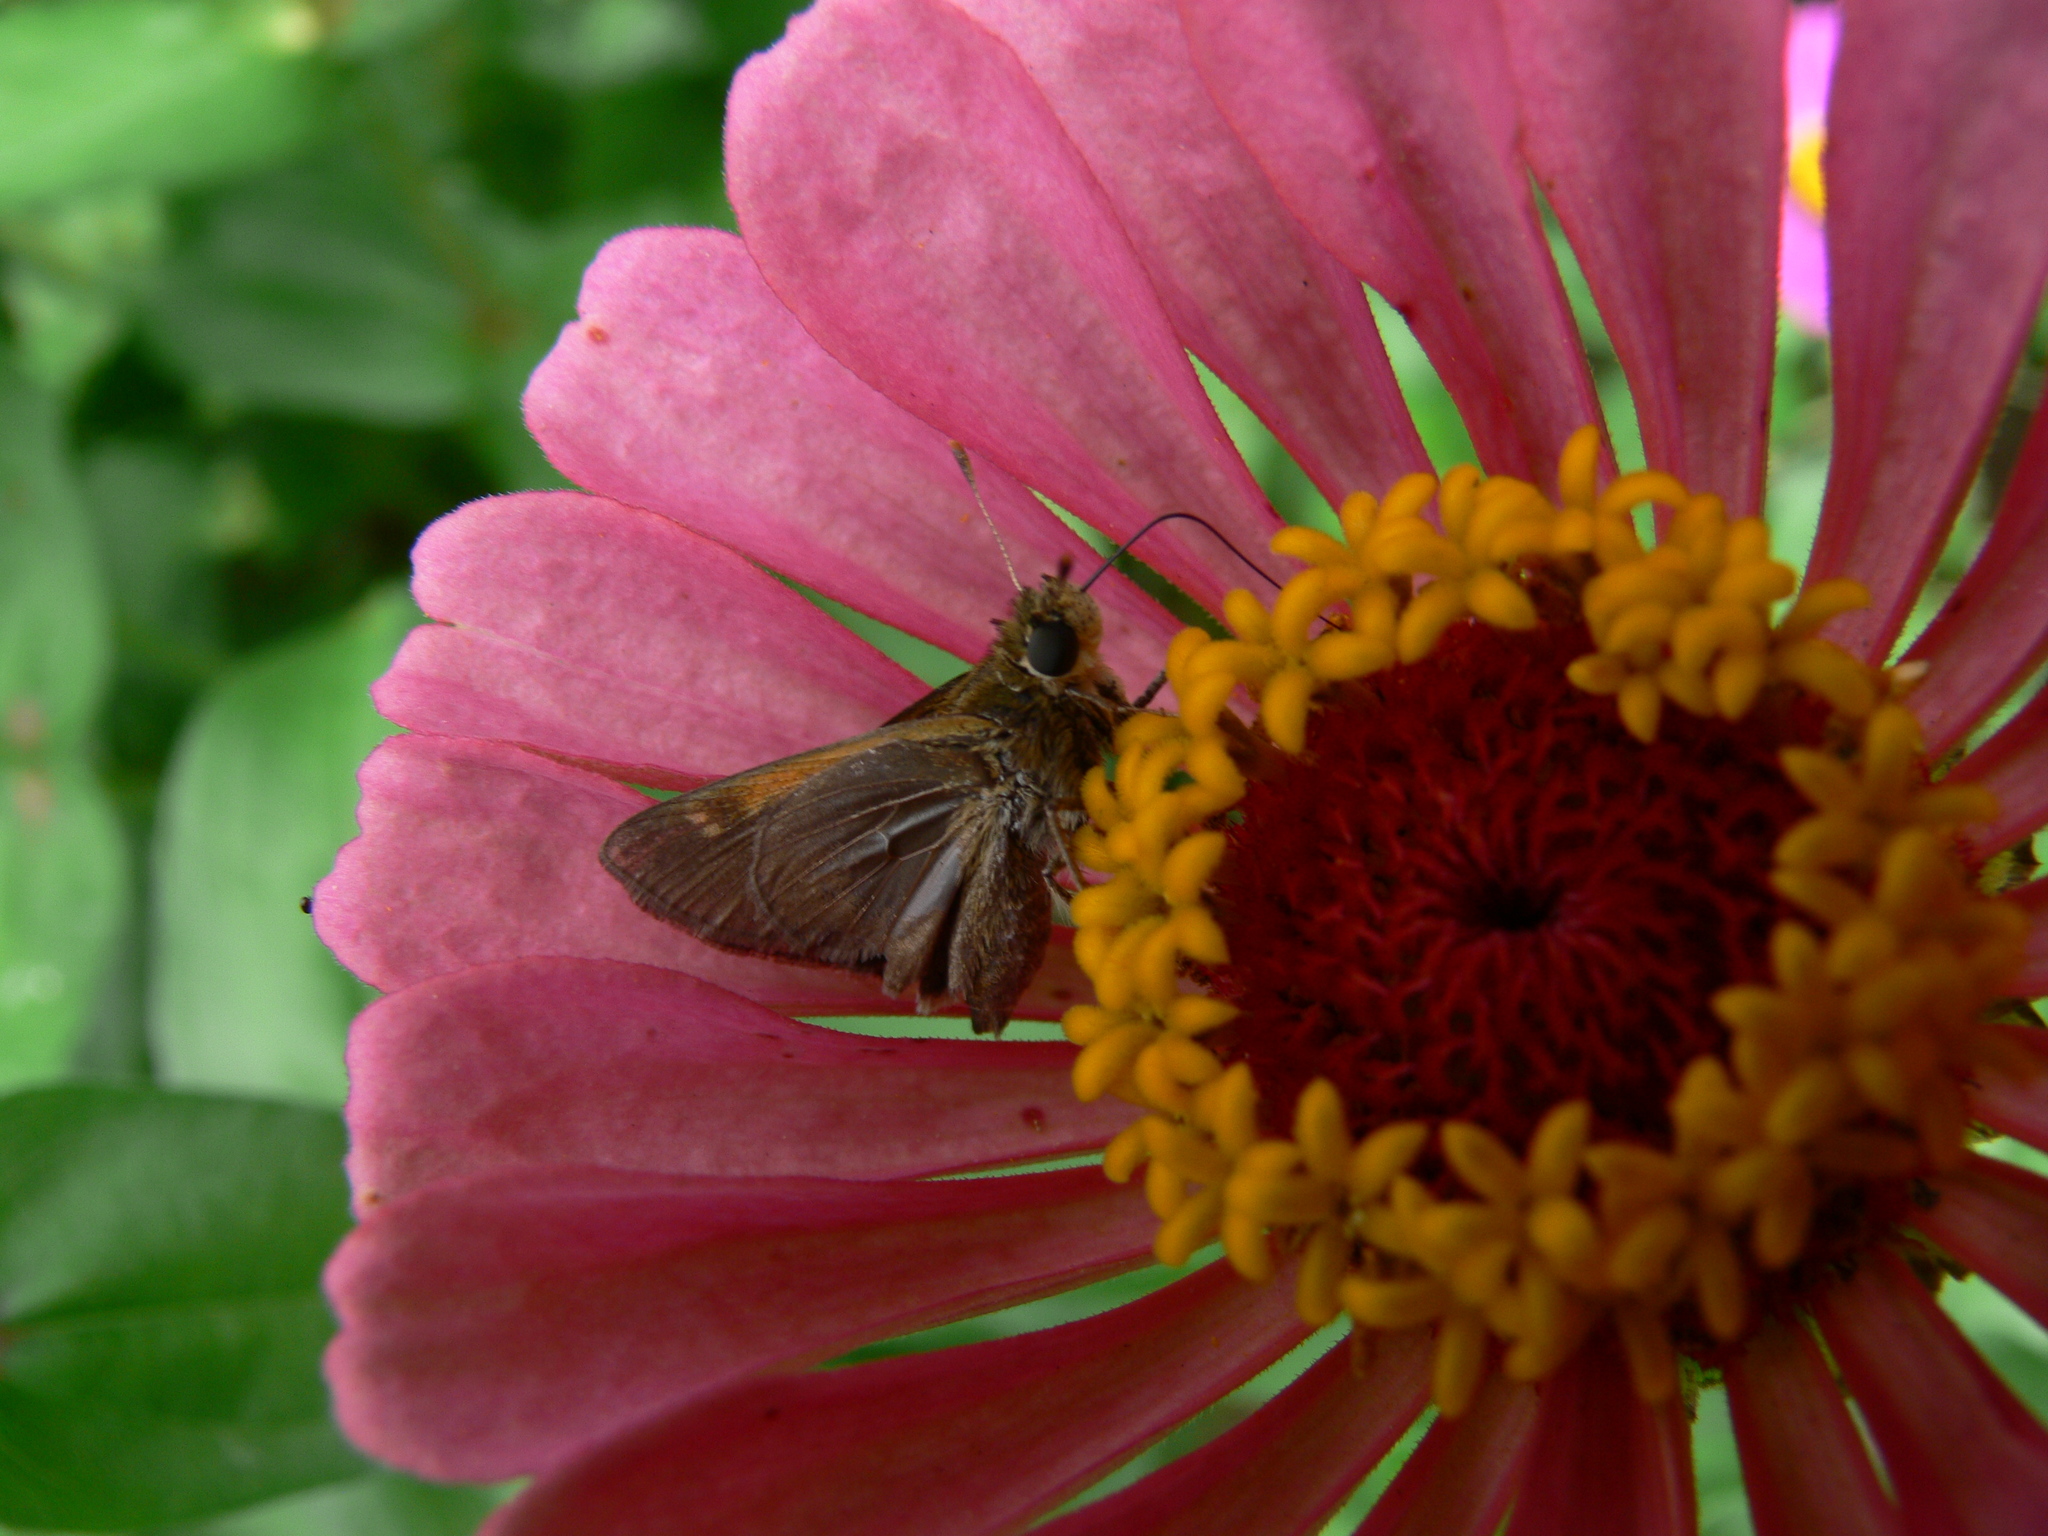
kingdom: Animalia
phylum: Arthropoda
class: Insecta
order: Lepidoptera
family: Hesperiidae
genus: Polites
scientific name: Polites themistocles
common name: Tawny-edged skipper
